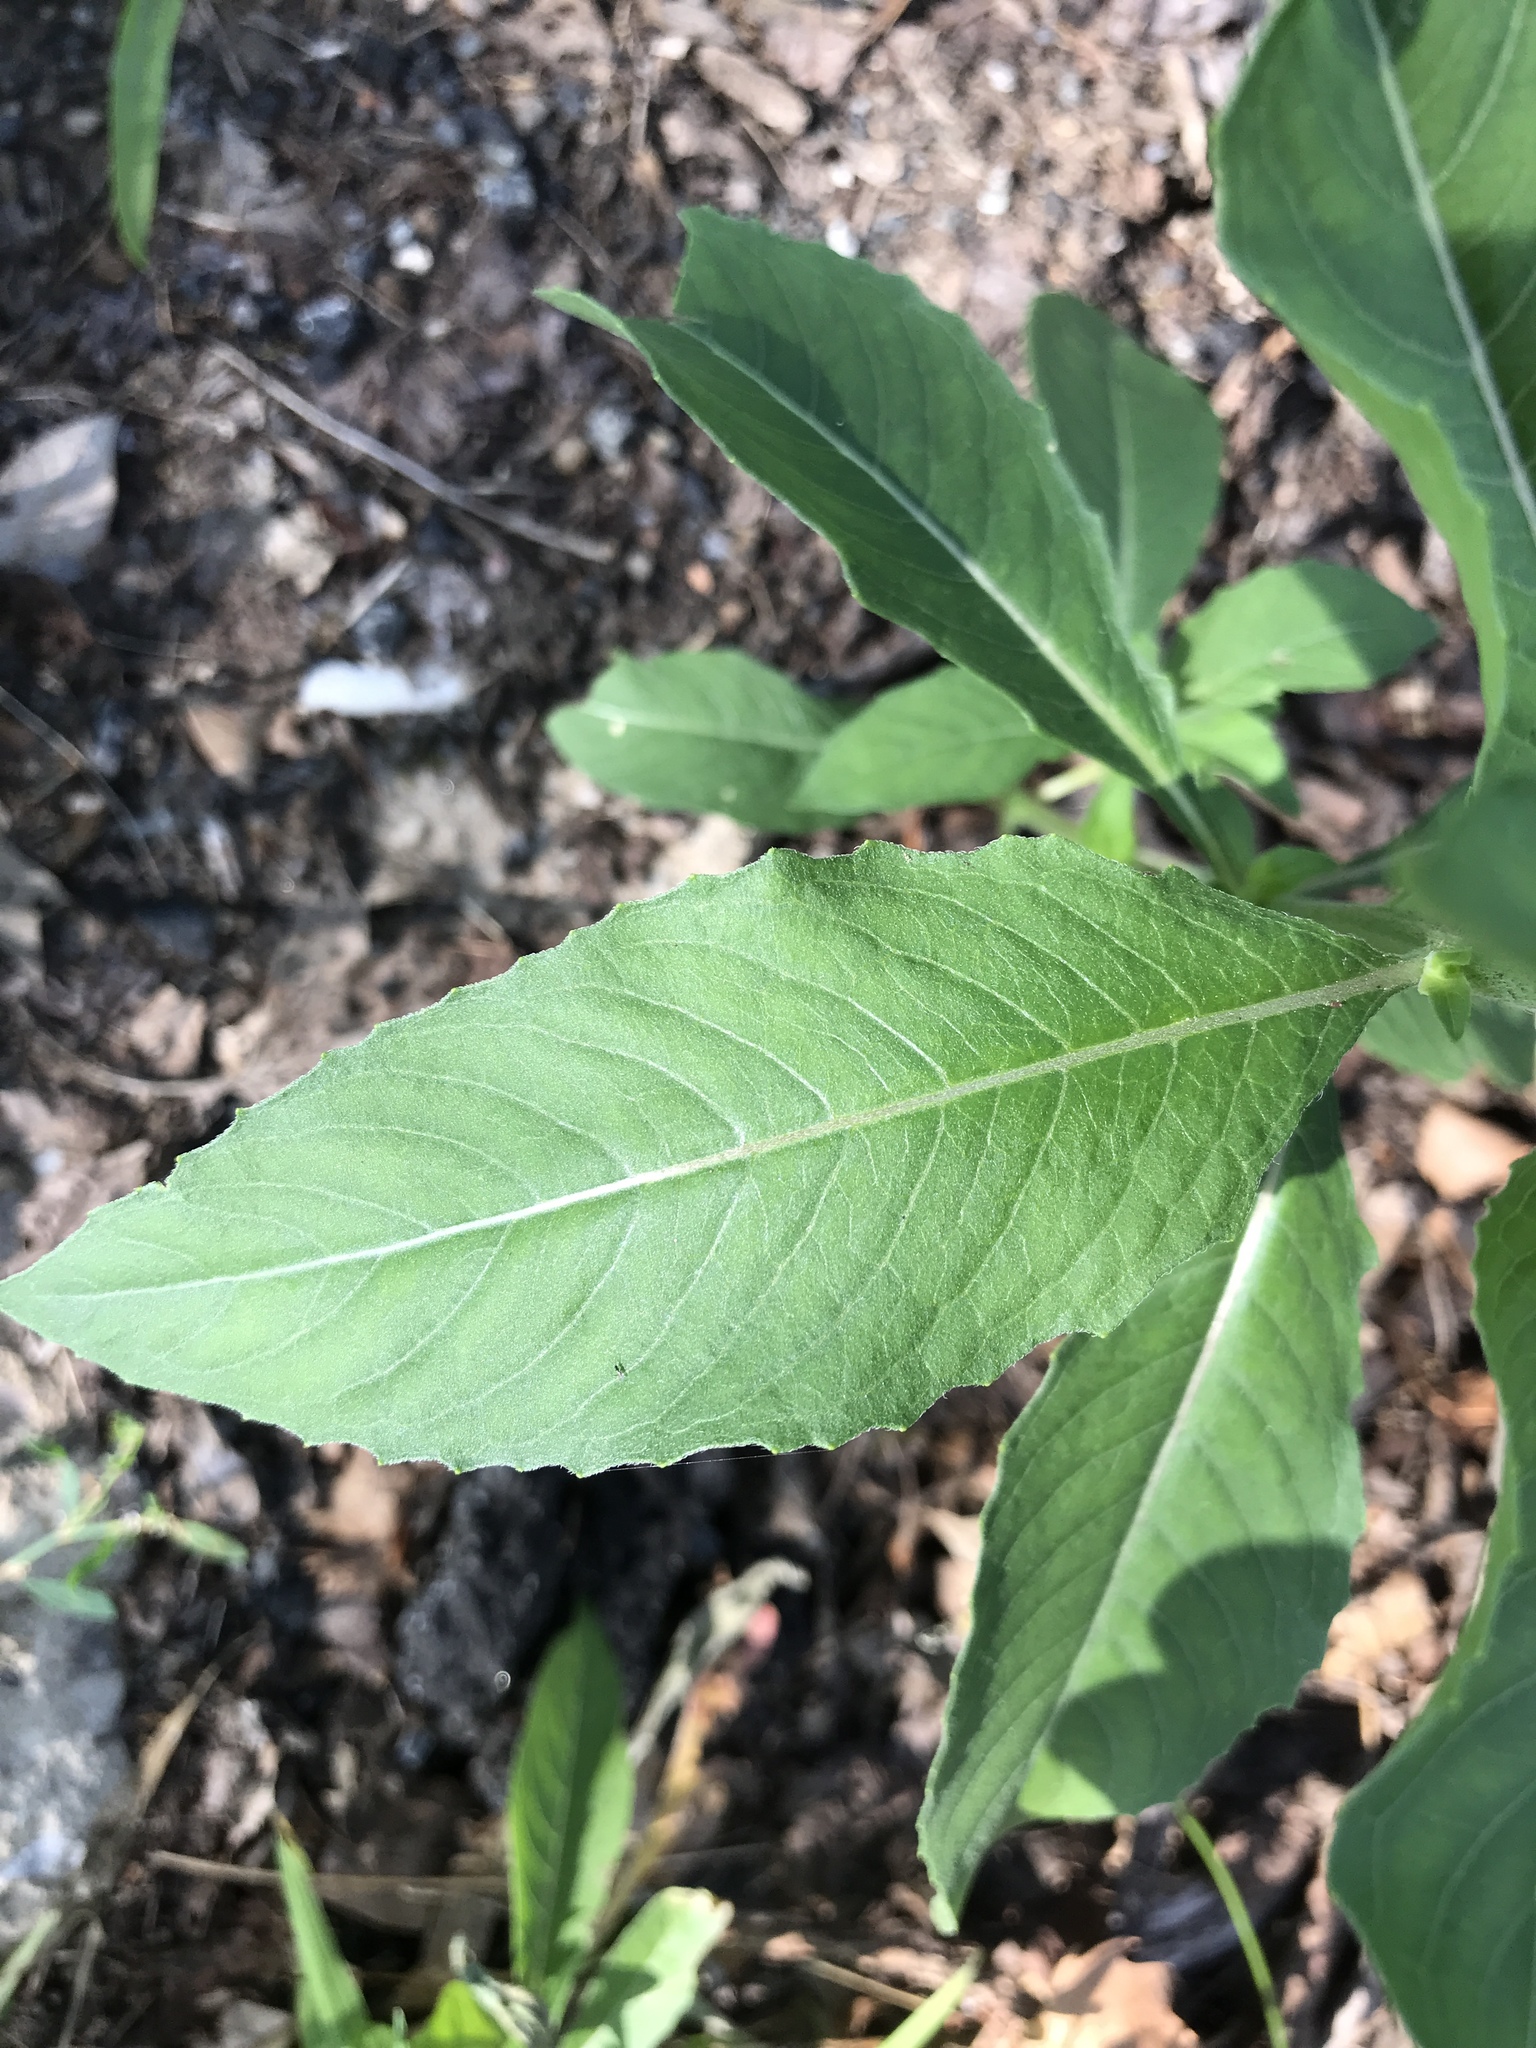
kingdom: Plantae
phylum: Tracheophyta
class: Magnoliopsida
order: Myrtales
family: Onagraceae
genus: Oenothera
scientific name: Oenothera biennis
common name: Common evening-primrose
